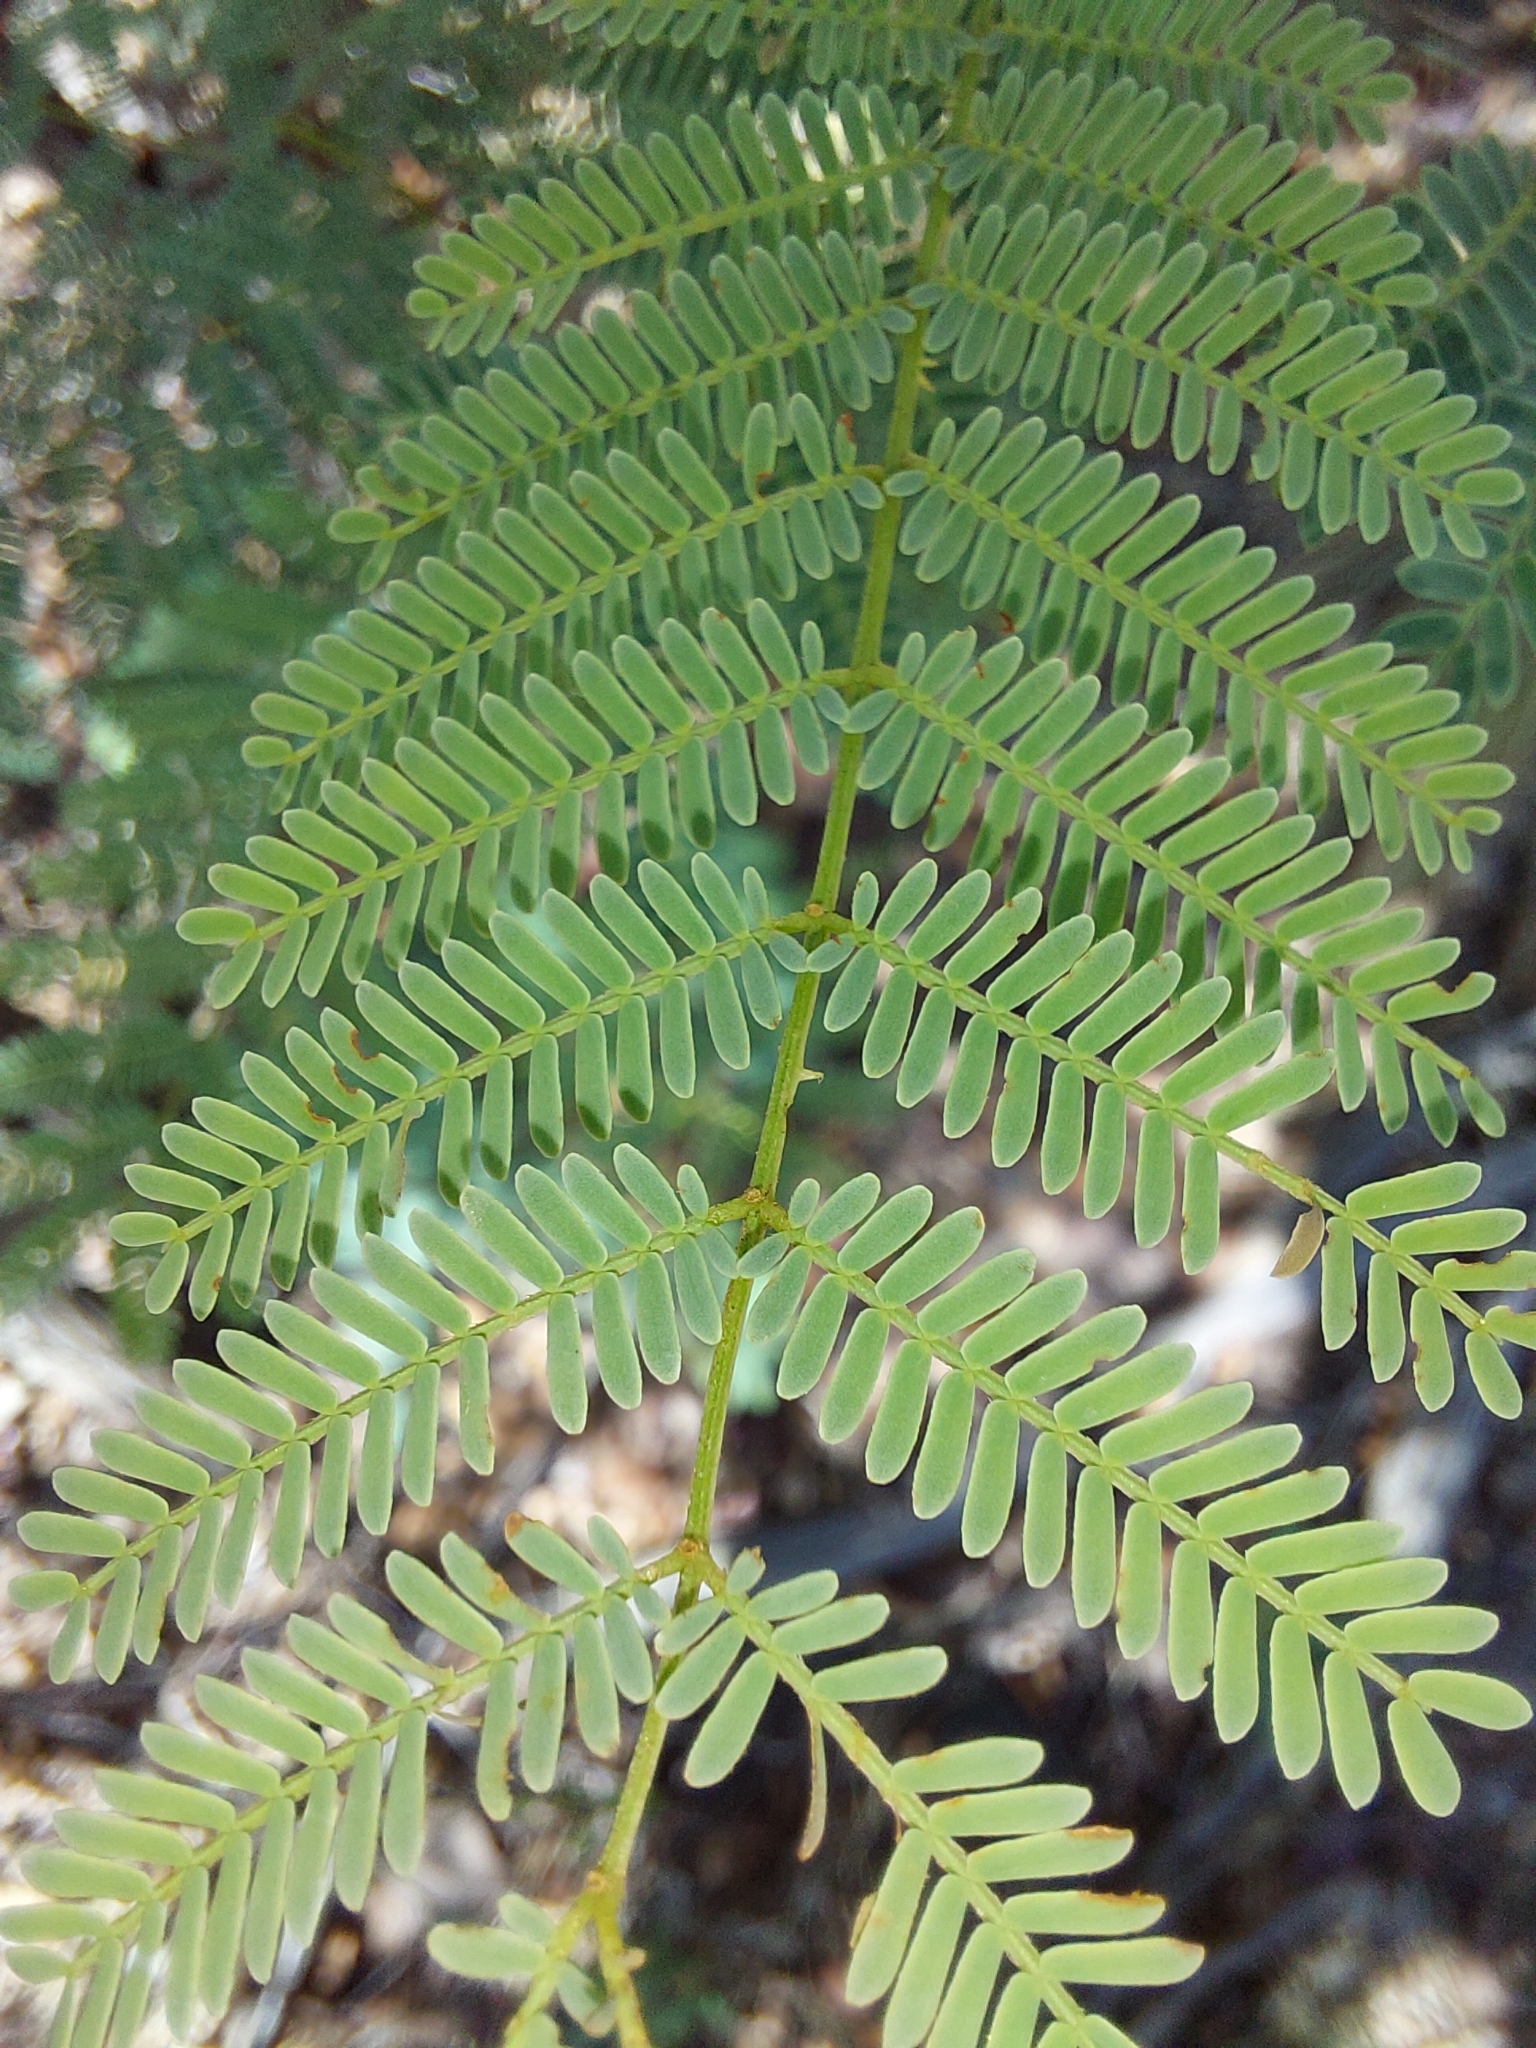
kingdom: Plantae
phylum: Tracheophyta
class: Magnoliopsida
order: Fabales
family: Fabaceae
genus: Senegalia
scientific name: Senegalia ataxacantha
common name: Flame acacia
